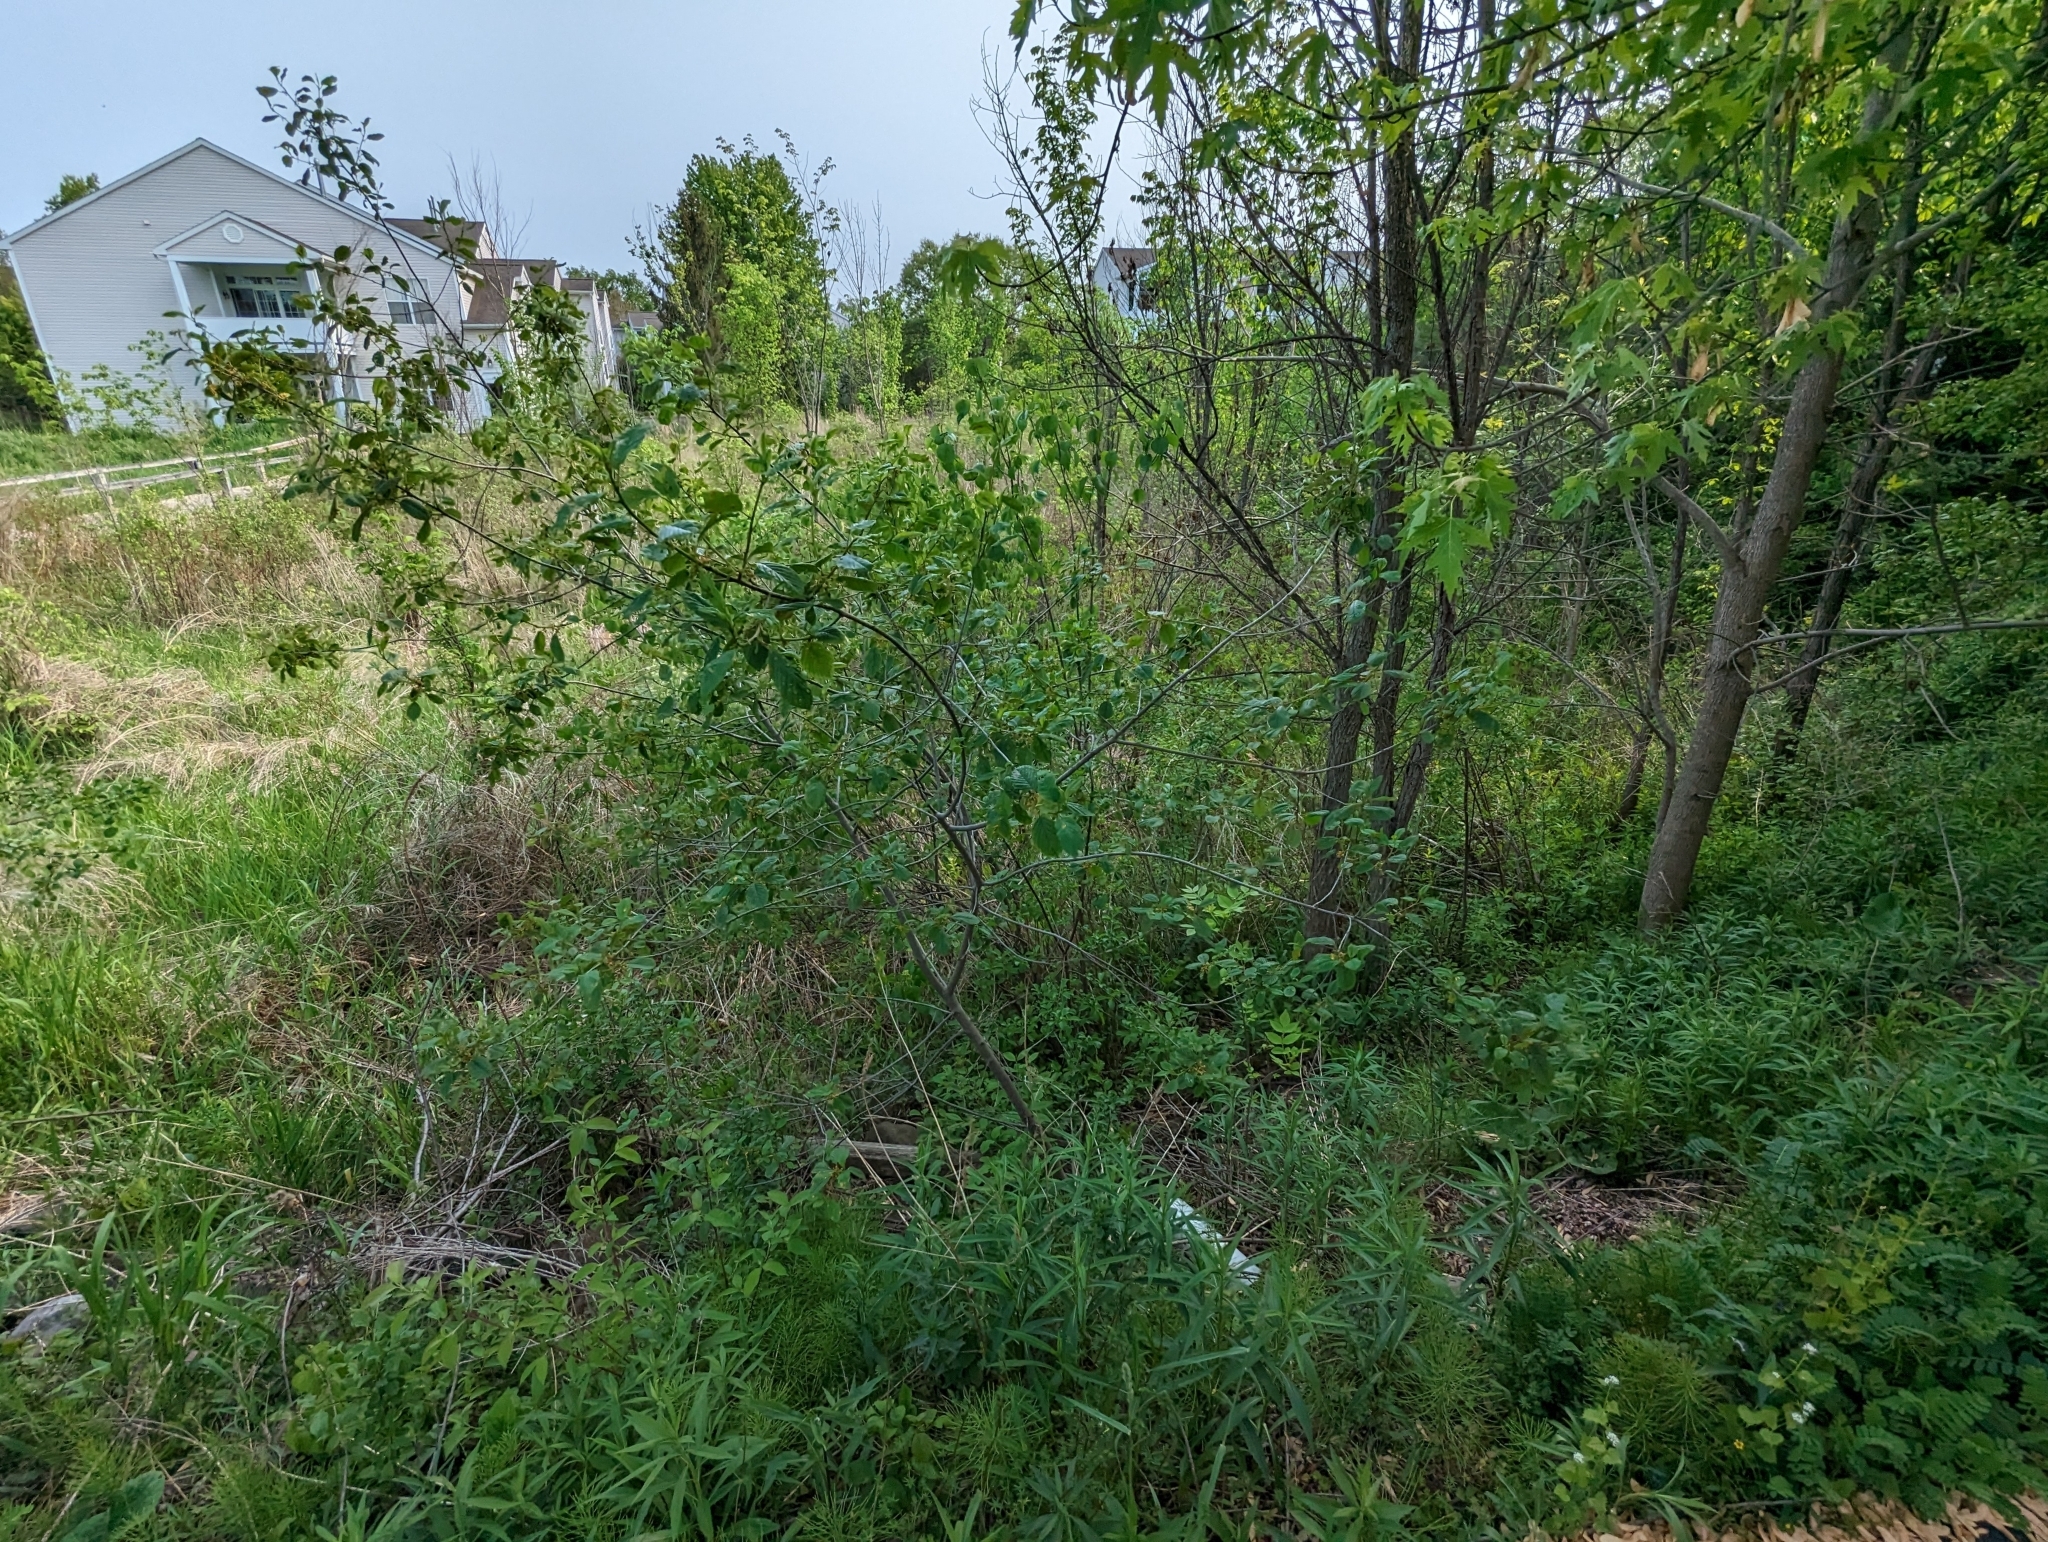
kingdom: Fungi
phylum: Basidiomycota
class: Pucciniomycetes
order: Pucciniales
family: Pucciniaceae
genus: Puccinia
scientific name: Puccinia coronata
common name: Crown rust
